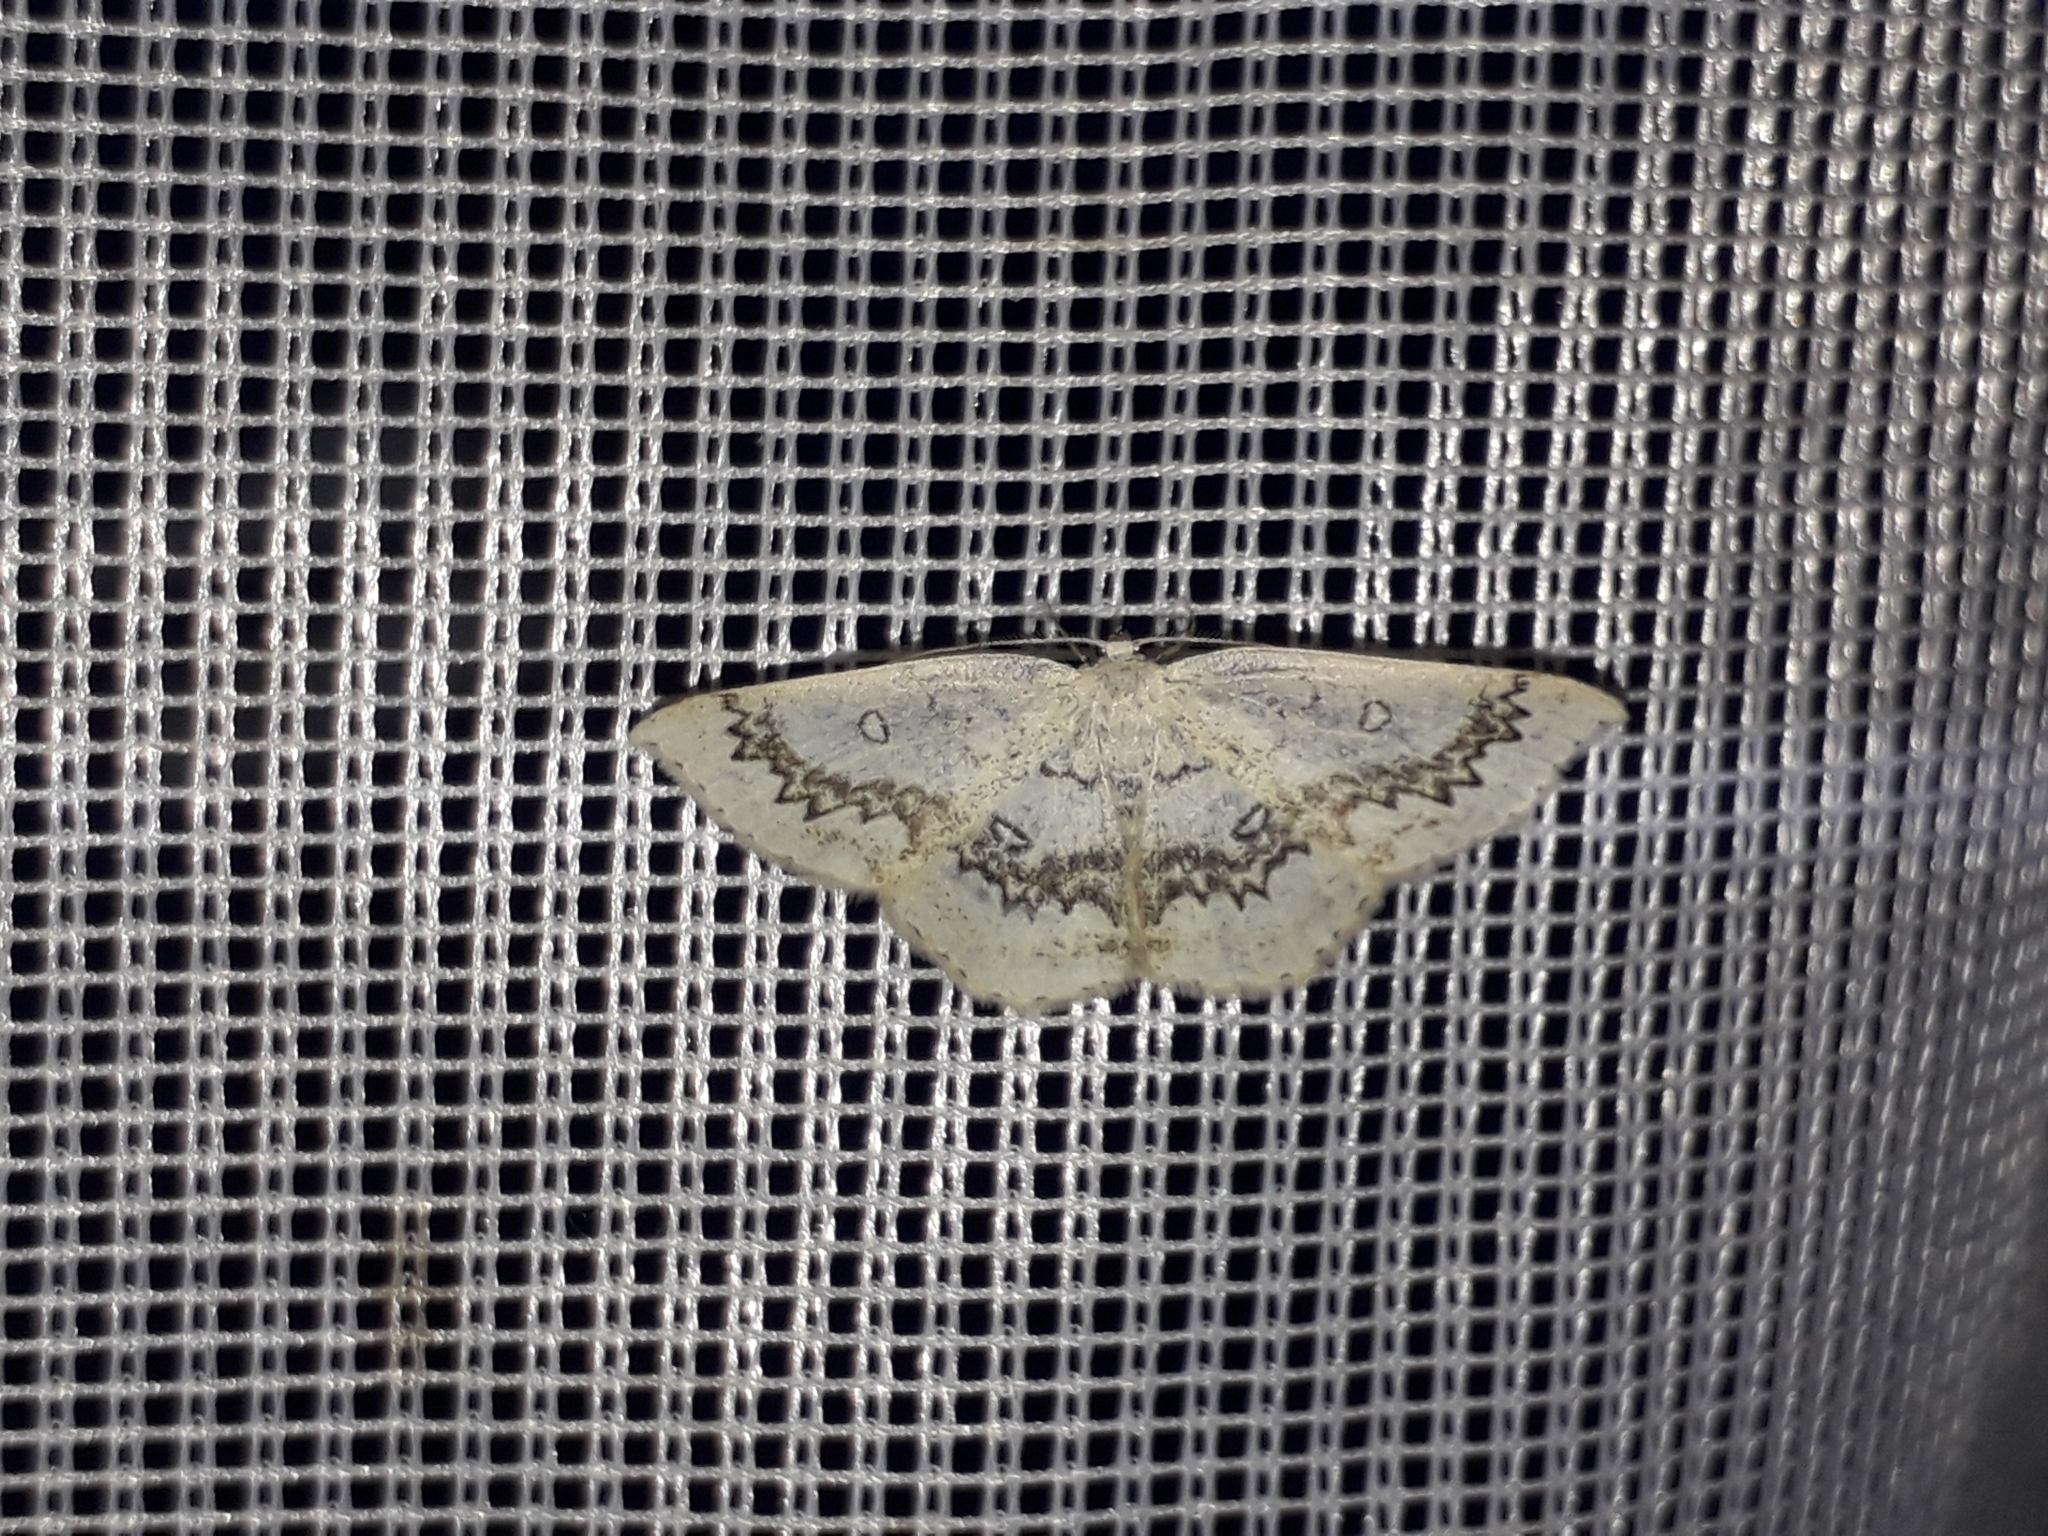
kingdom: Animalia
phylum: Arthropoda
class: Insecta
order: Lepidoptera
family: Geometridae
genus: Cyclophora
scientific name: Cyclophora annularia
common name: Mocha
